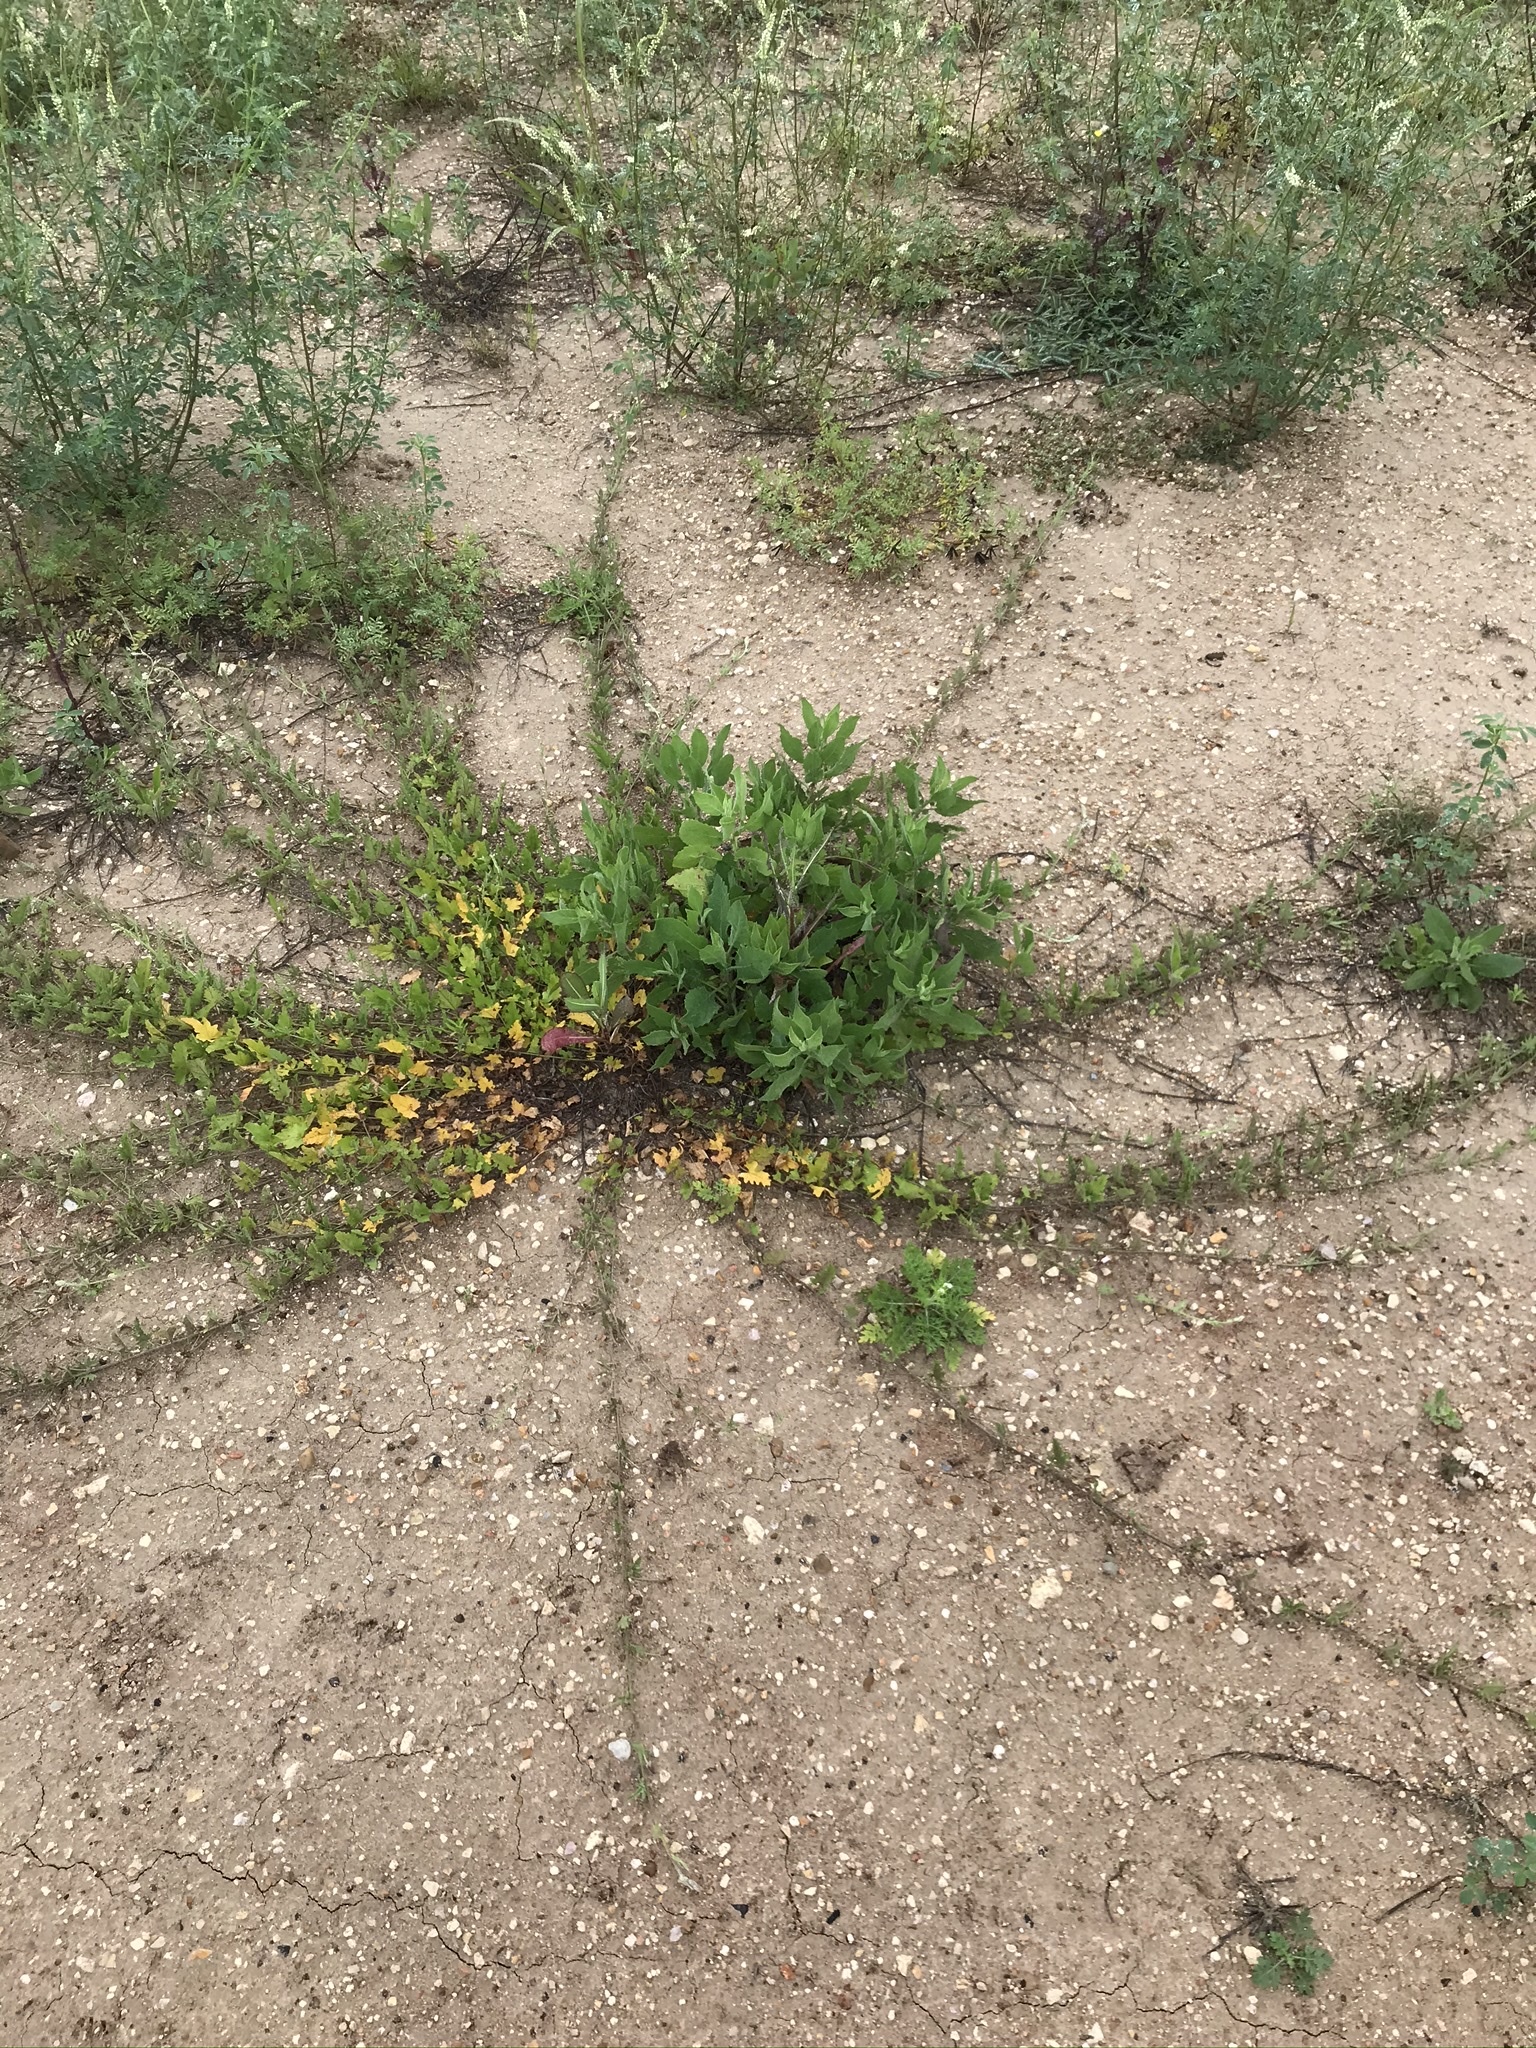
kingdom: Plantae
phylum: Tracheophyta
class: Magnoliopsida
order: Solanales
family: Convolvulaceae
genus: Convolvulus
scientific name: Convolvulus equitans
